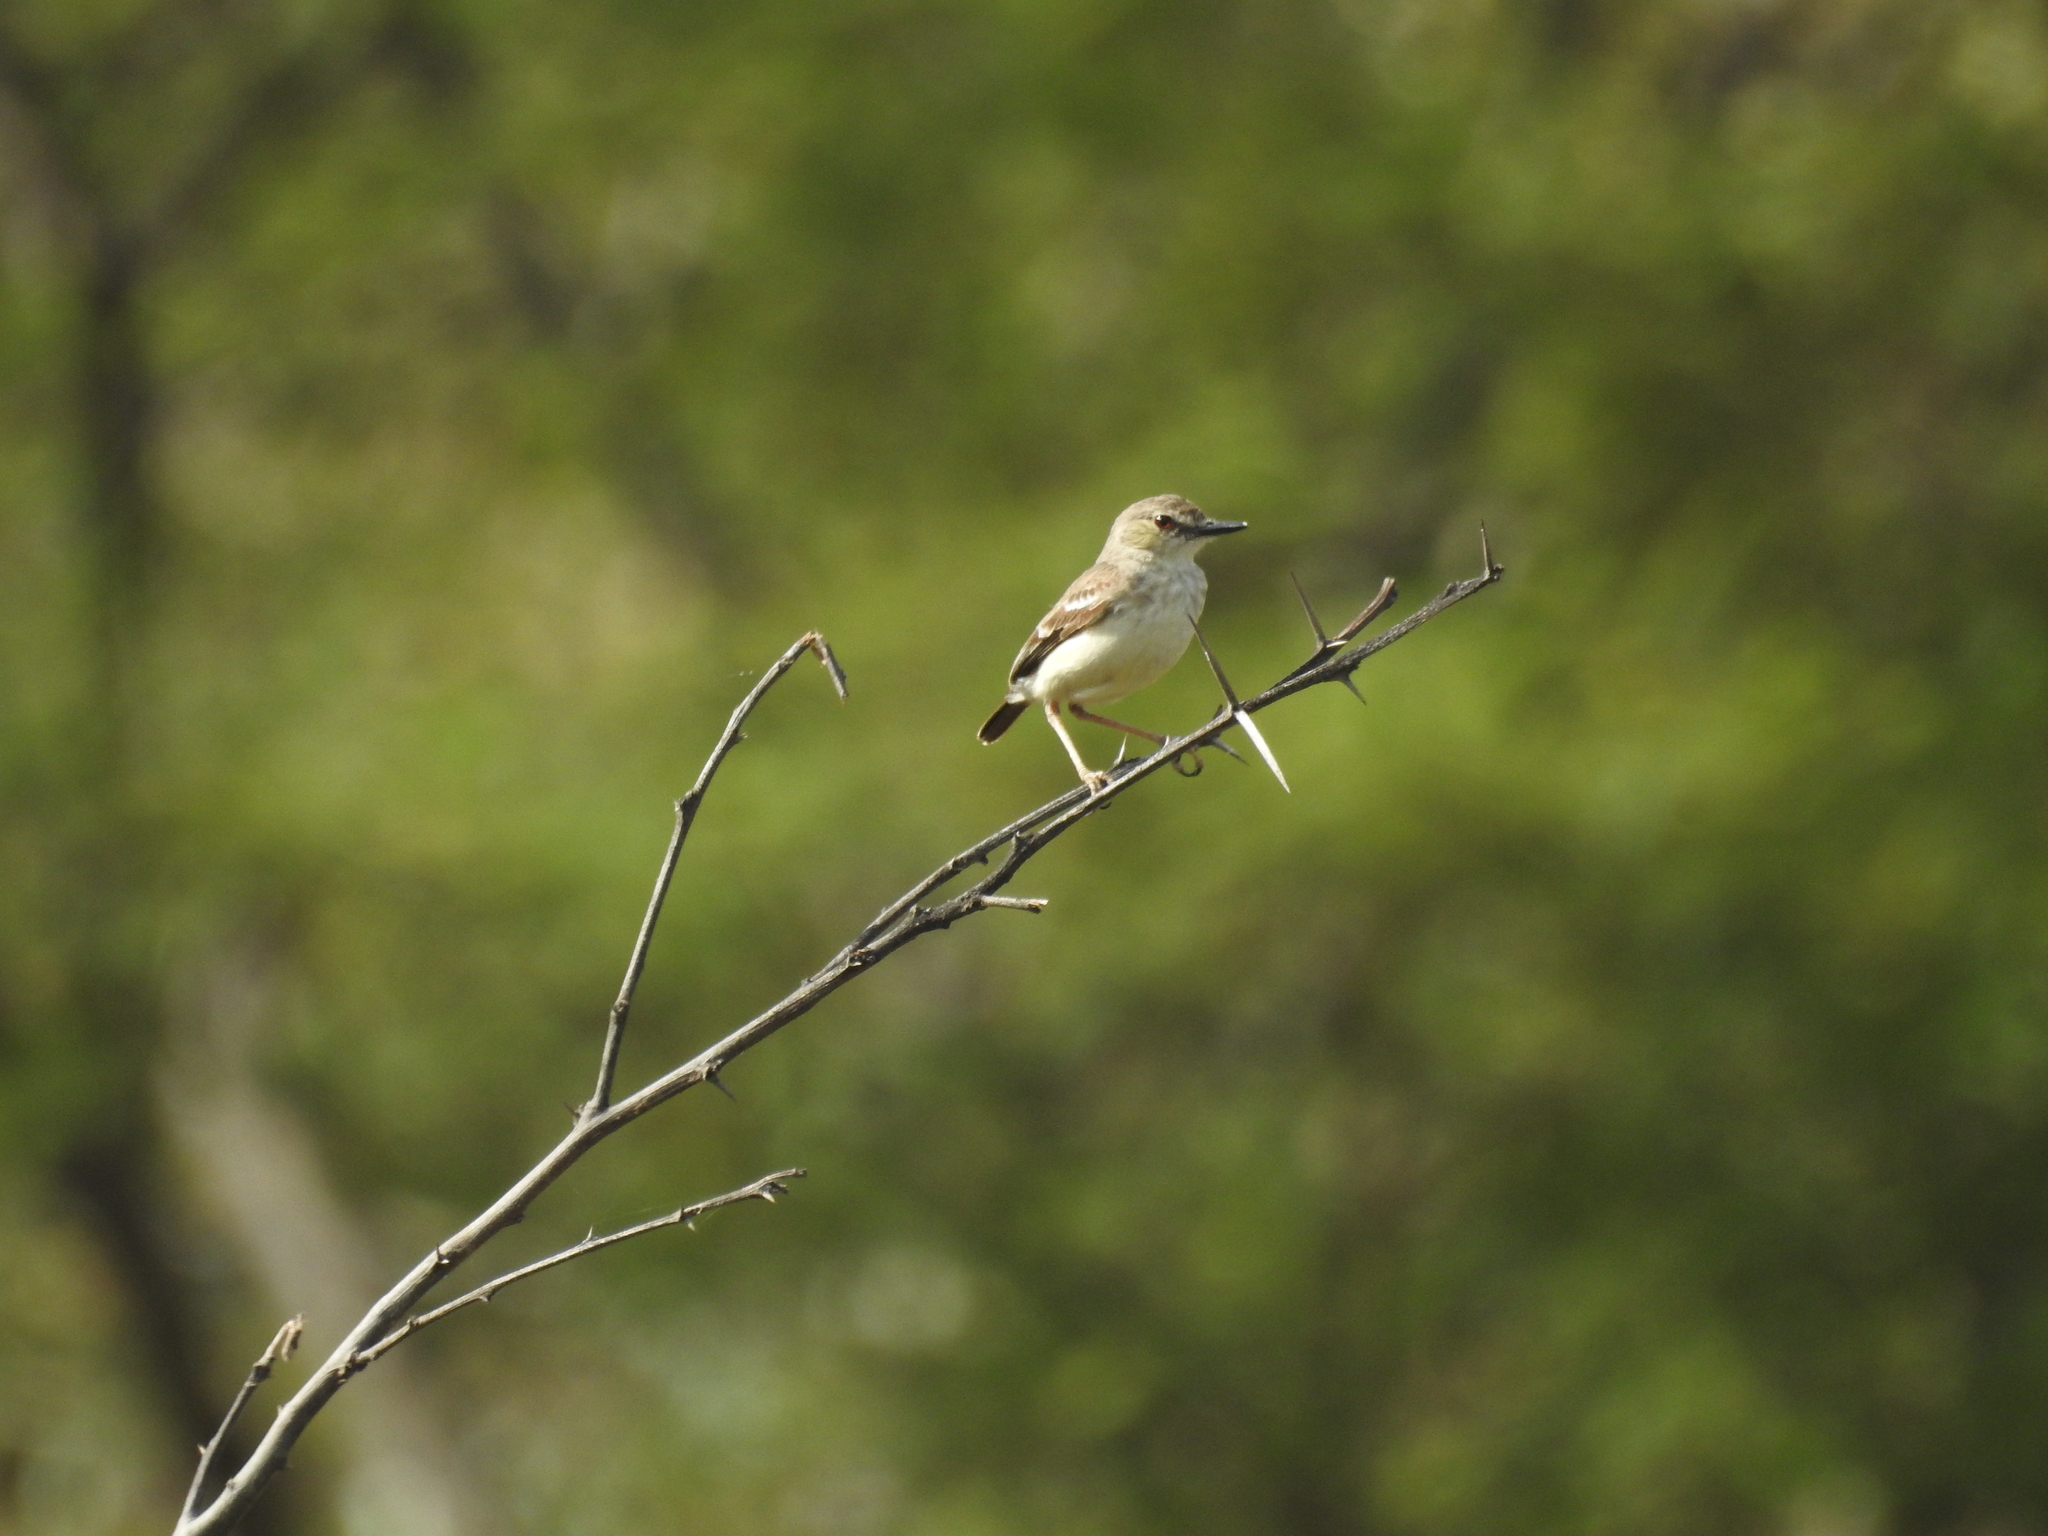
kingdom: Animalia
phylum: Chordata
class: Aves
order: Passeriformes
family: Tyrannidae
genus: Muscigralla
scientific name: Muscigralla brevicauda
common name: Short-tailed field tyrant
